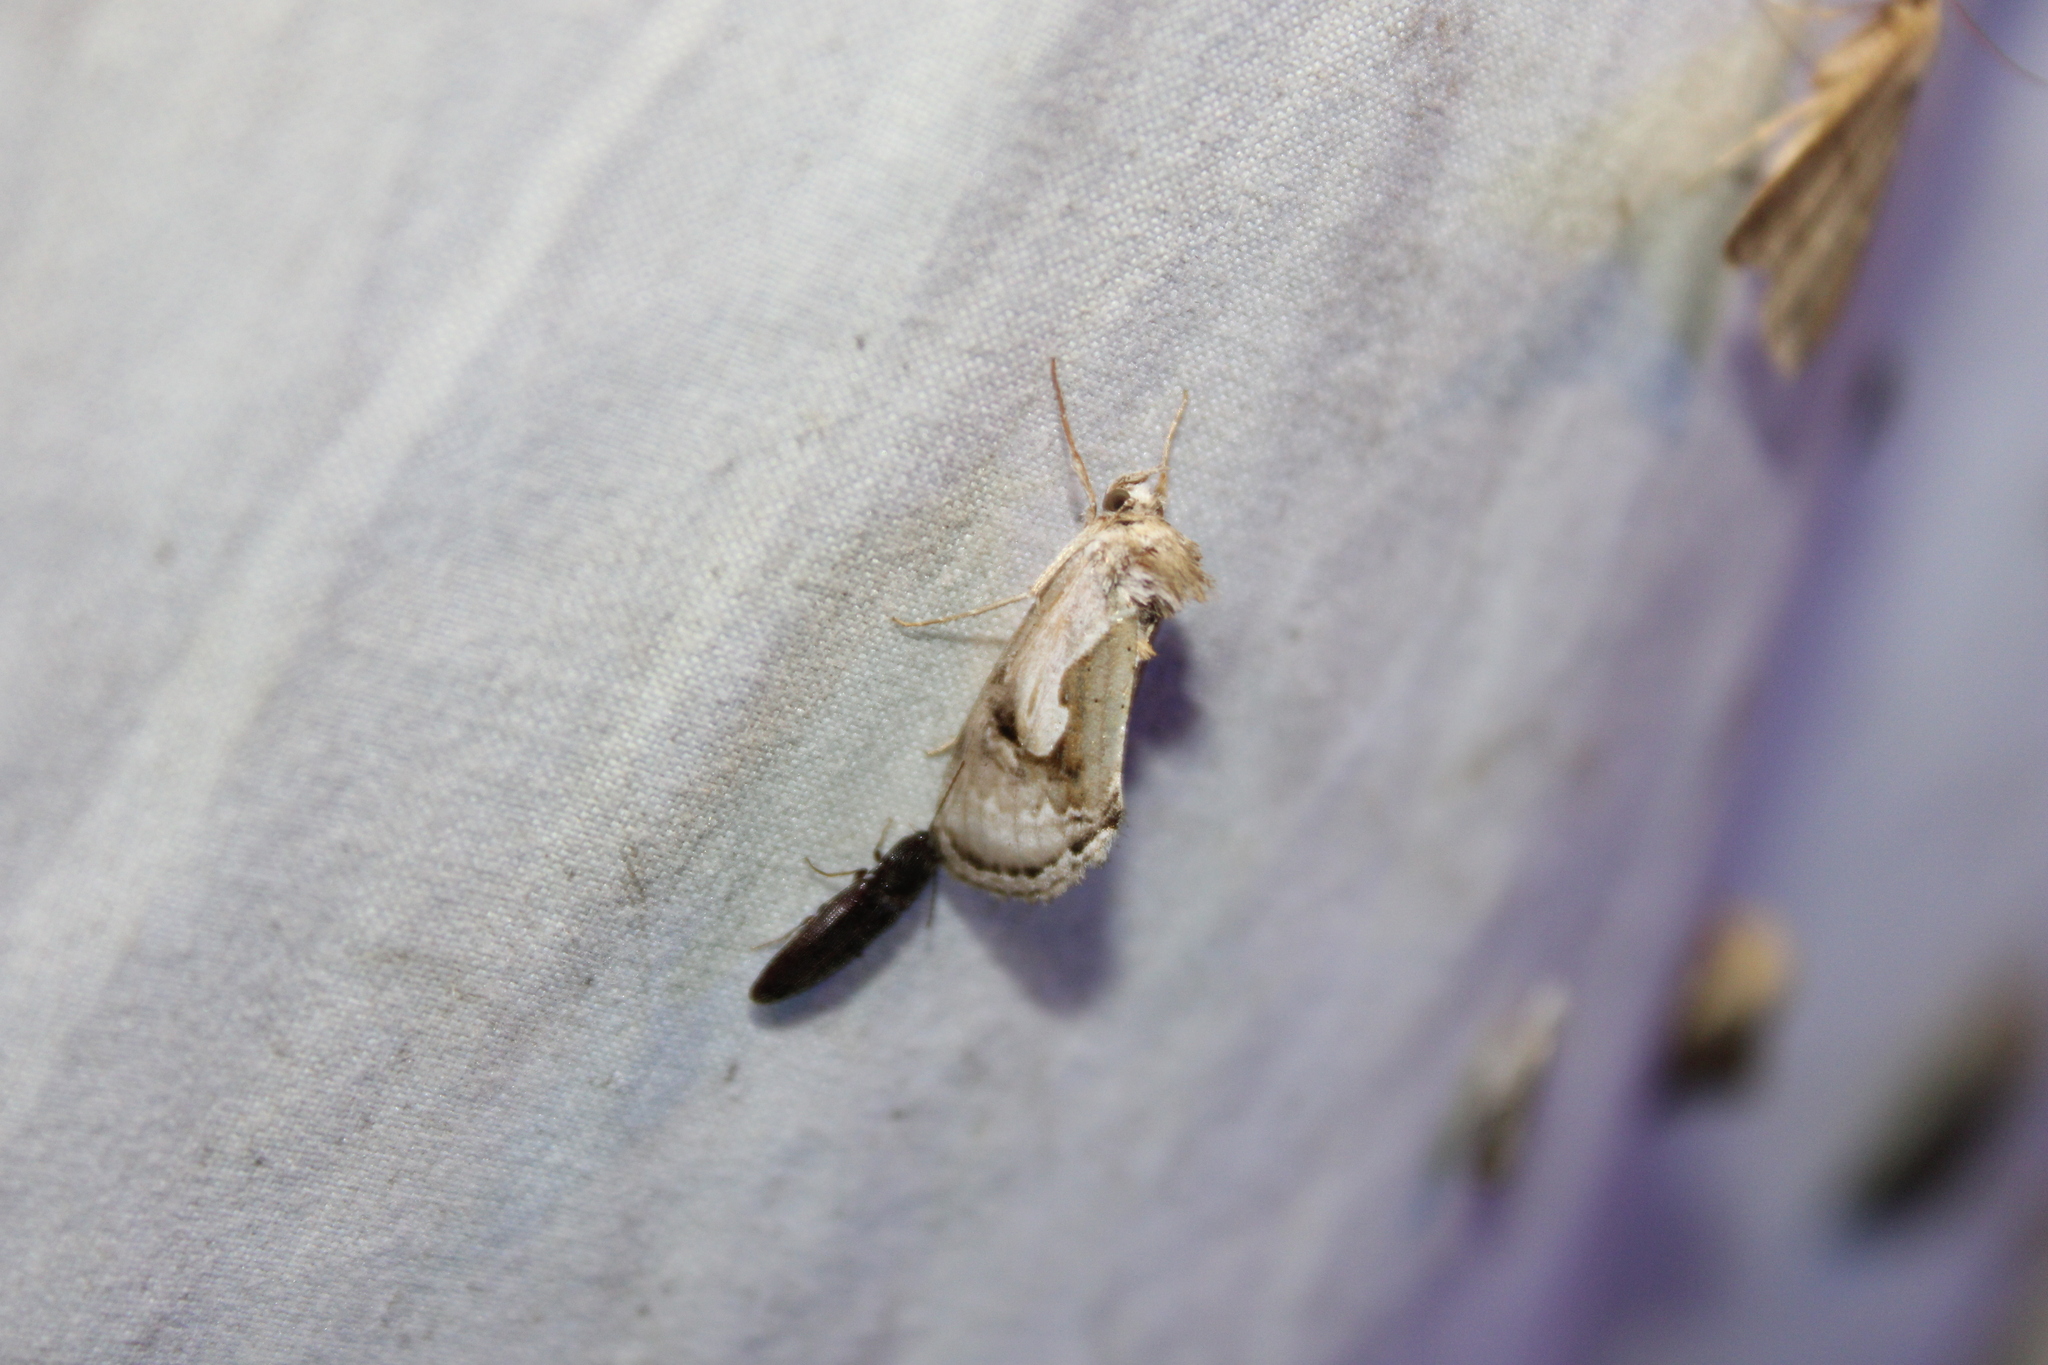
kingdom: Animalia
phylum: Arthropoda
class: Insecta
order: Lepidoptera
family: Noctuidae
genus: Chrysanympha
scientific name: Chrysanympha formosa
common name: Formosa looper moth
